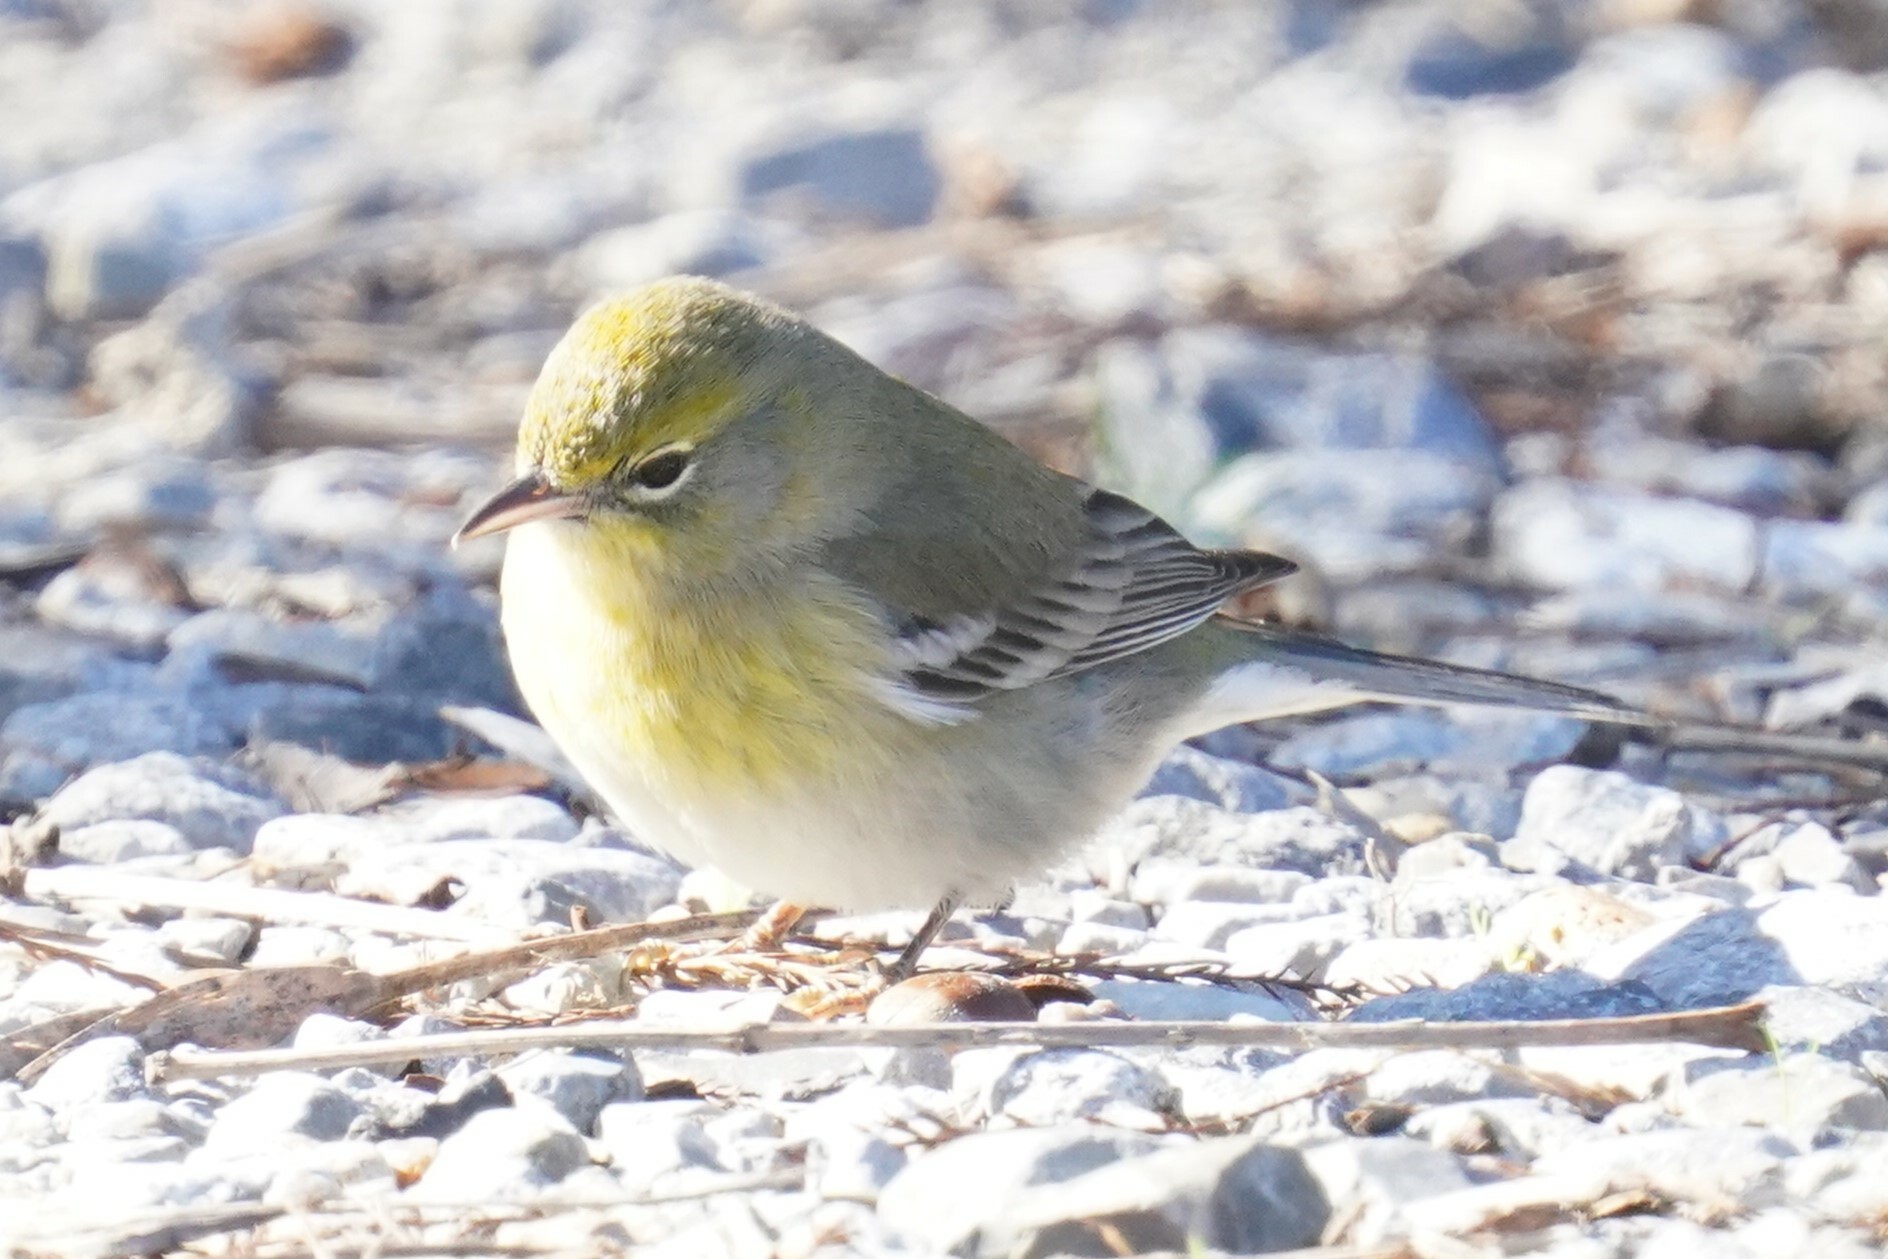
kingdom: Animalia
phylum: Chordata
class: Aves
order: Passeriformes
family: Parulidae
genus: Setophaga
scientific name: Setophaga pinus
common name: Pine warbler
